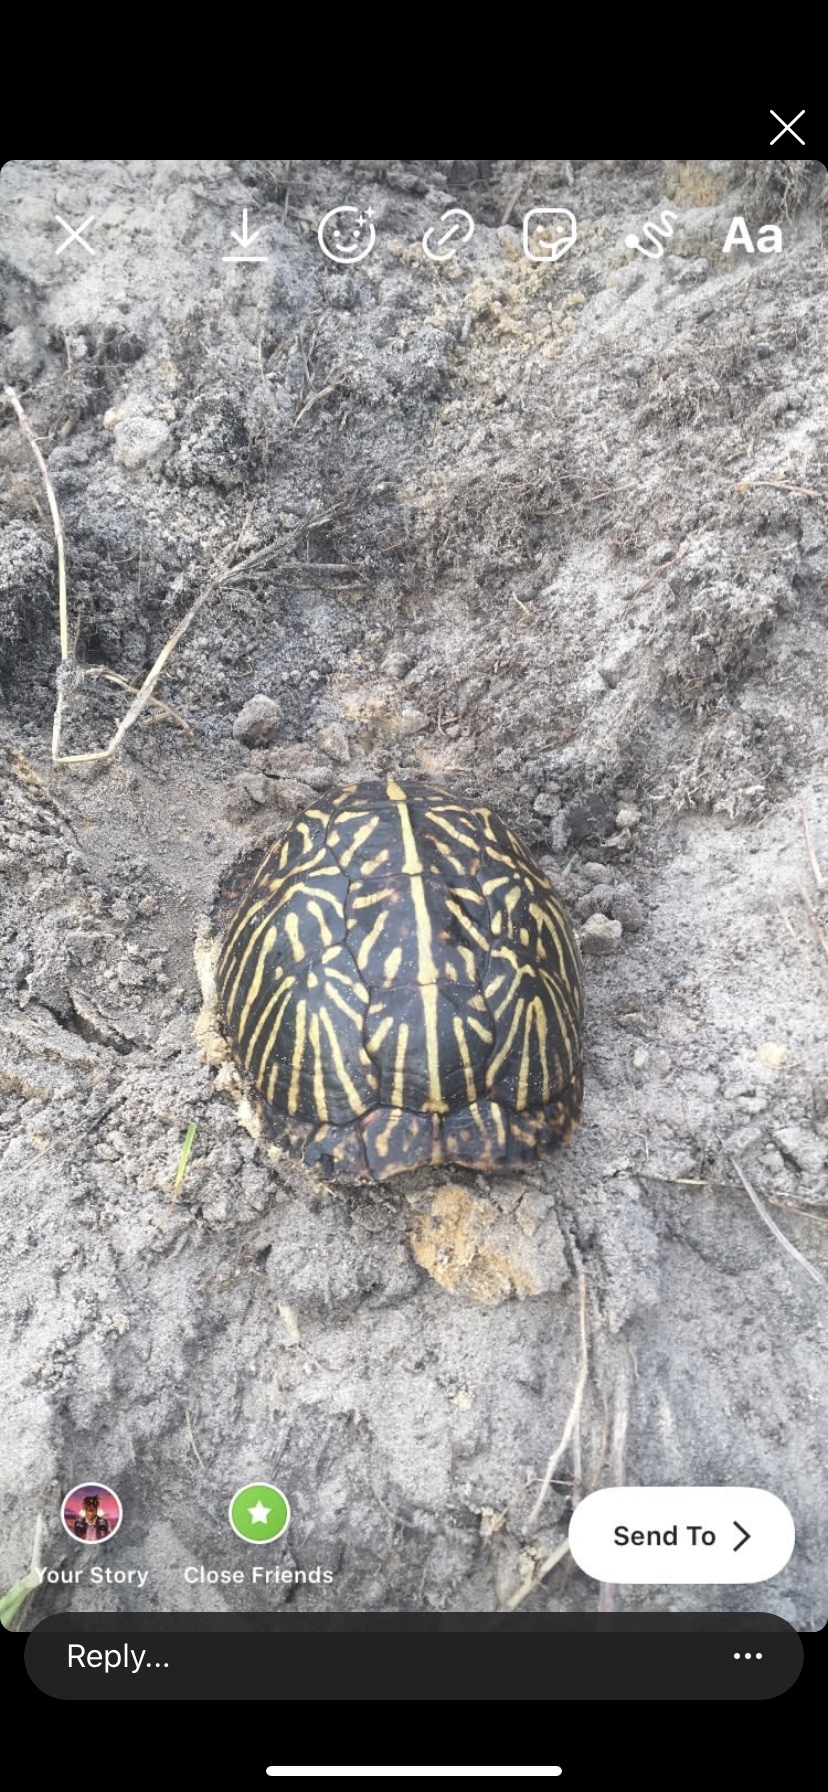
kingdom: Animalia
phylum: Chordata
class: Testudines
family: Emydidae
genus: Terrapene
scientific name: Terrapene carolina
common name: Common box turtle
